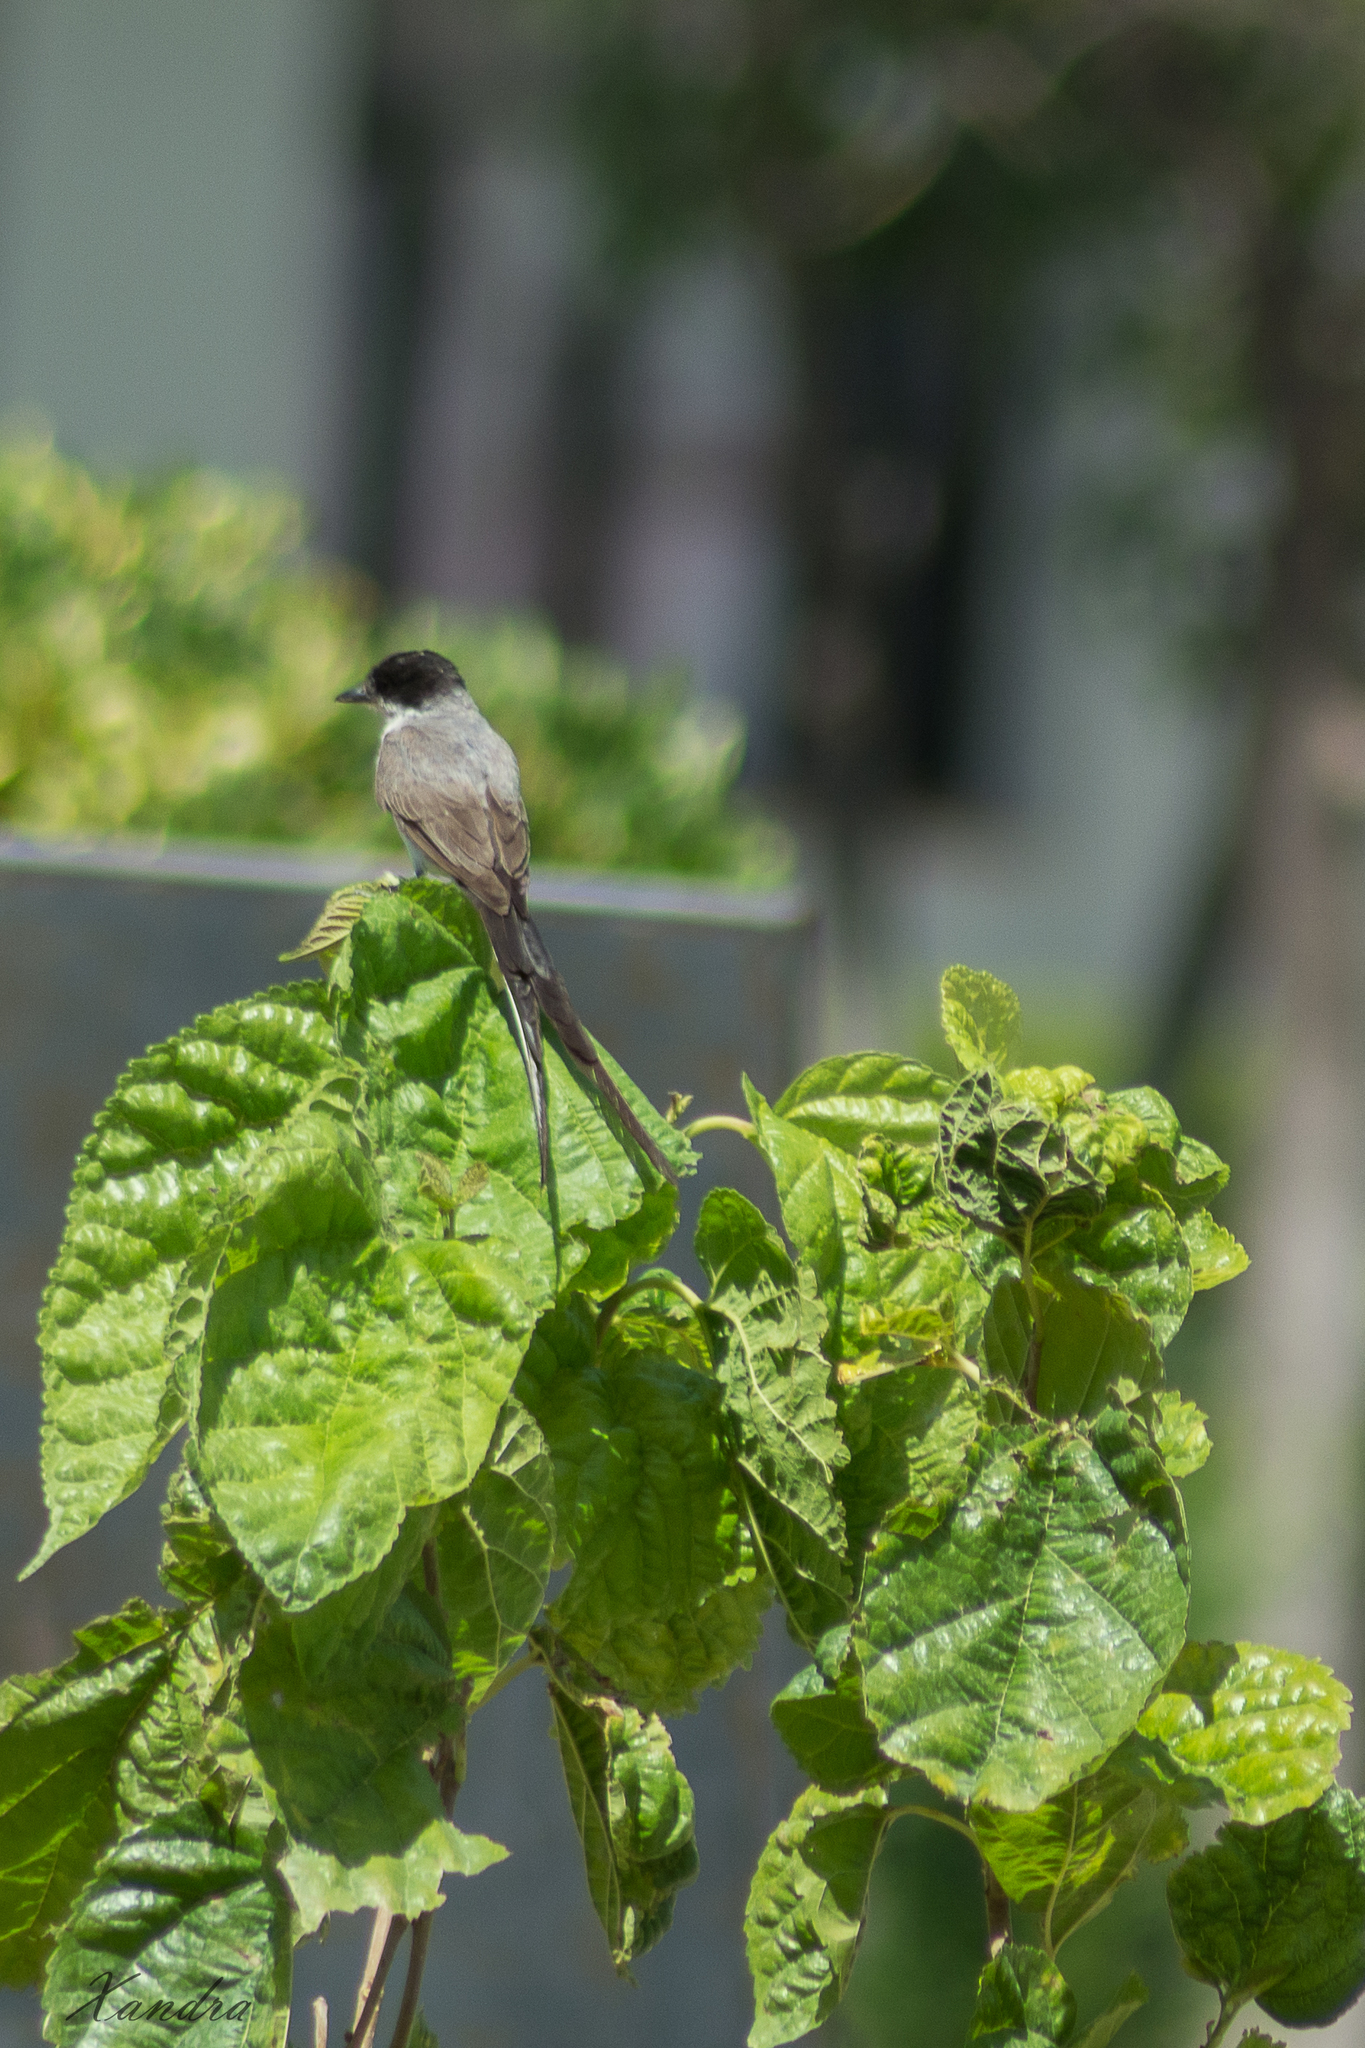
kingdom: Animalia
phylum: Chordata
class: Aves
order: Passeriformes
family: Tyrannidae
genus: Tyrannus
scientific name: Tyrannus savana
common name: Fork-tailed flycatcher
